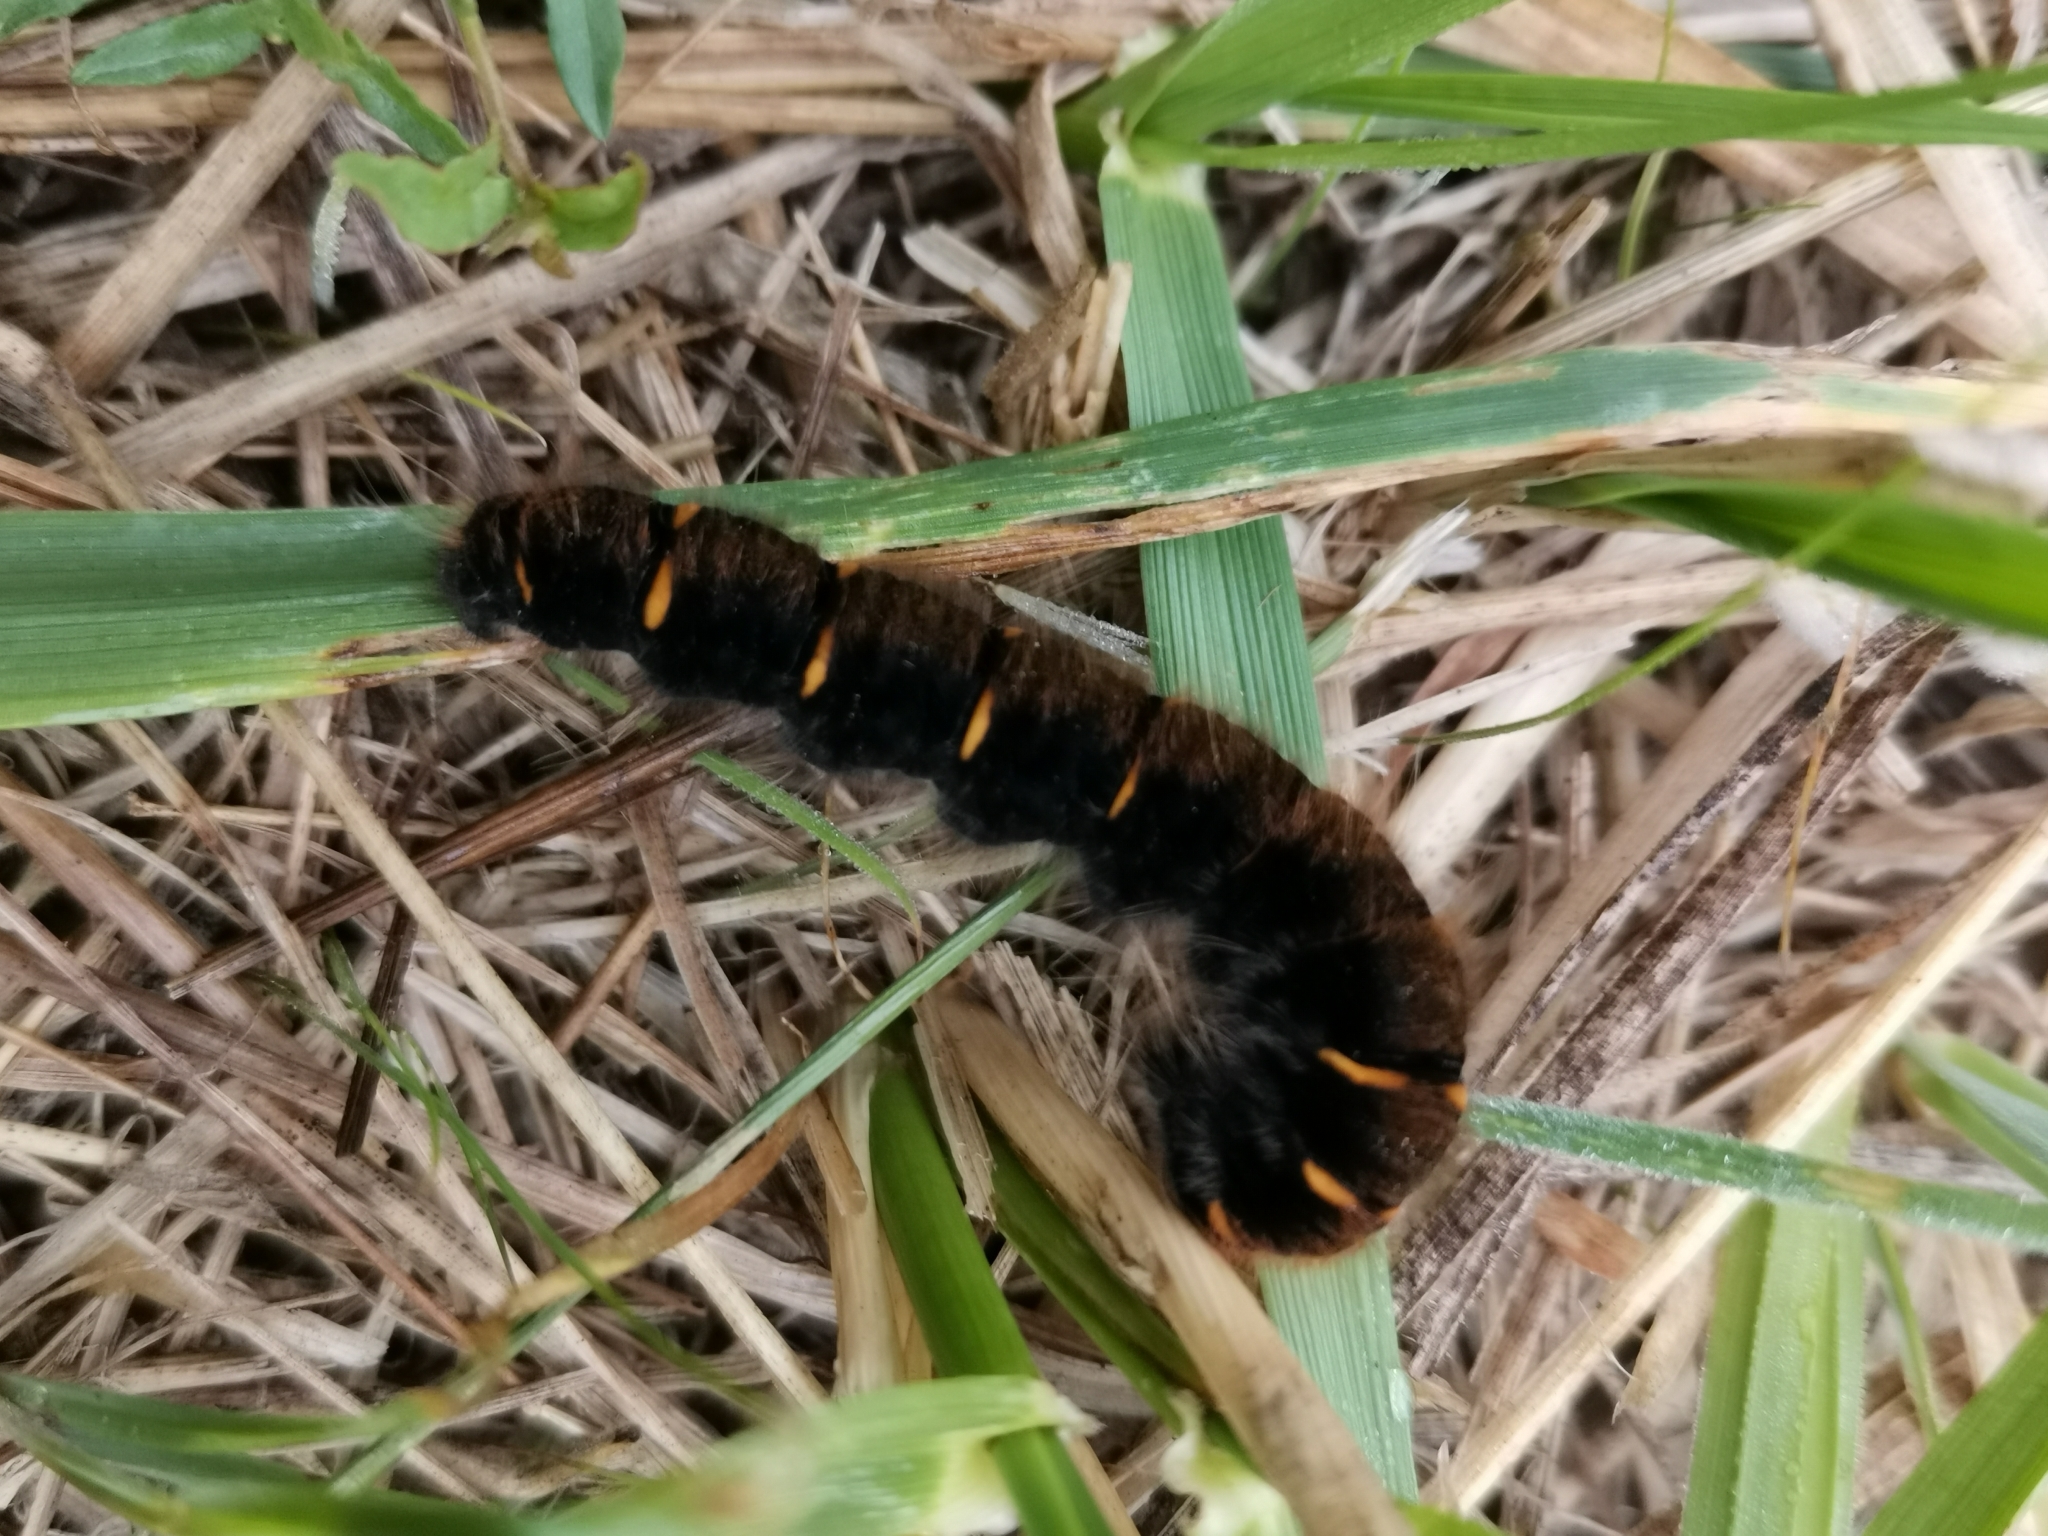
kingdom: Animalia
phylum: Arthropoda
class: Insecta
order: Lepidoptera
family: Lasiocampidae
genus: Macrothylacia
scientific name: Macrothylacia rubi
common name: Fox moth
